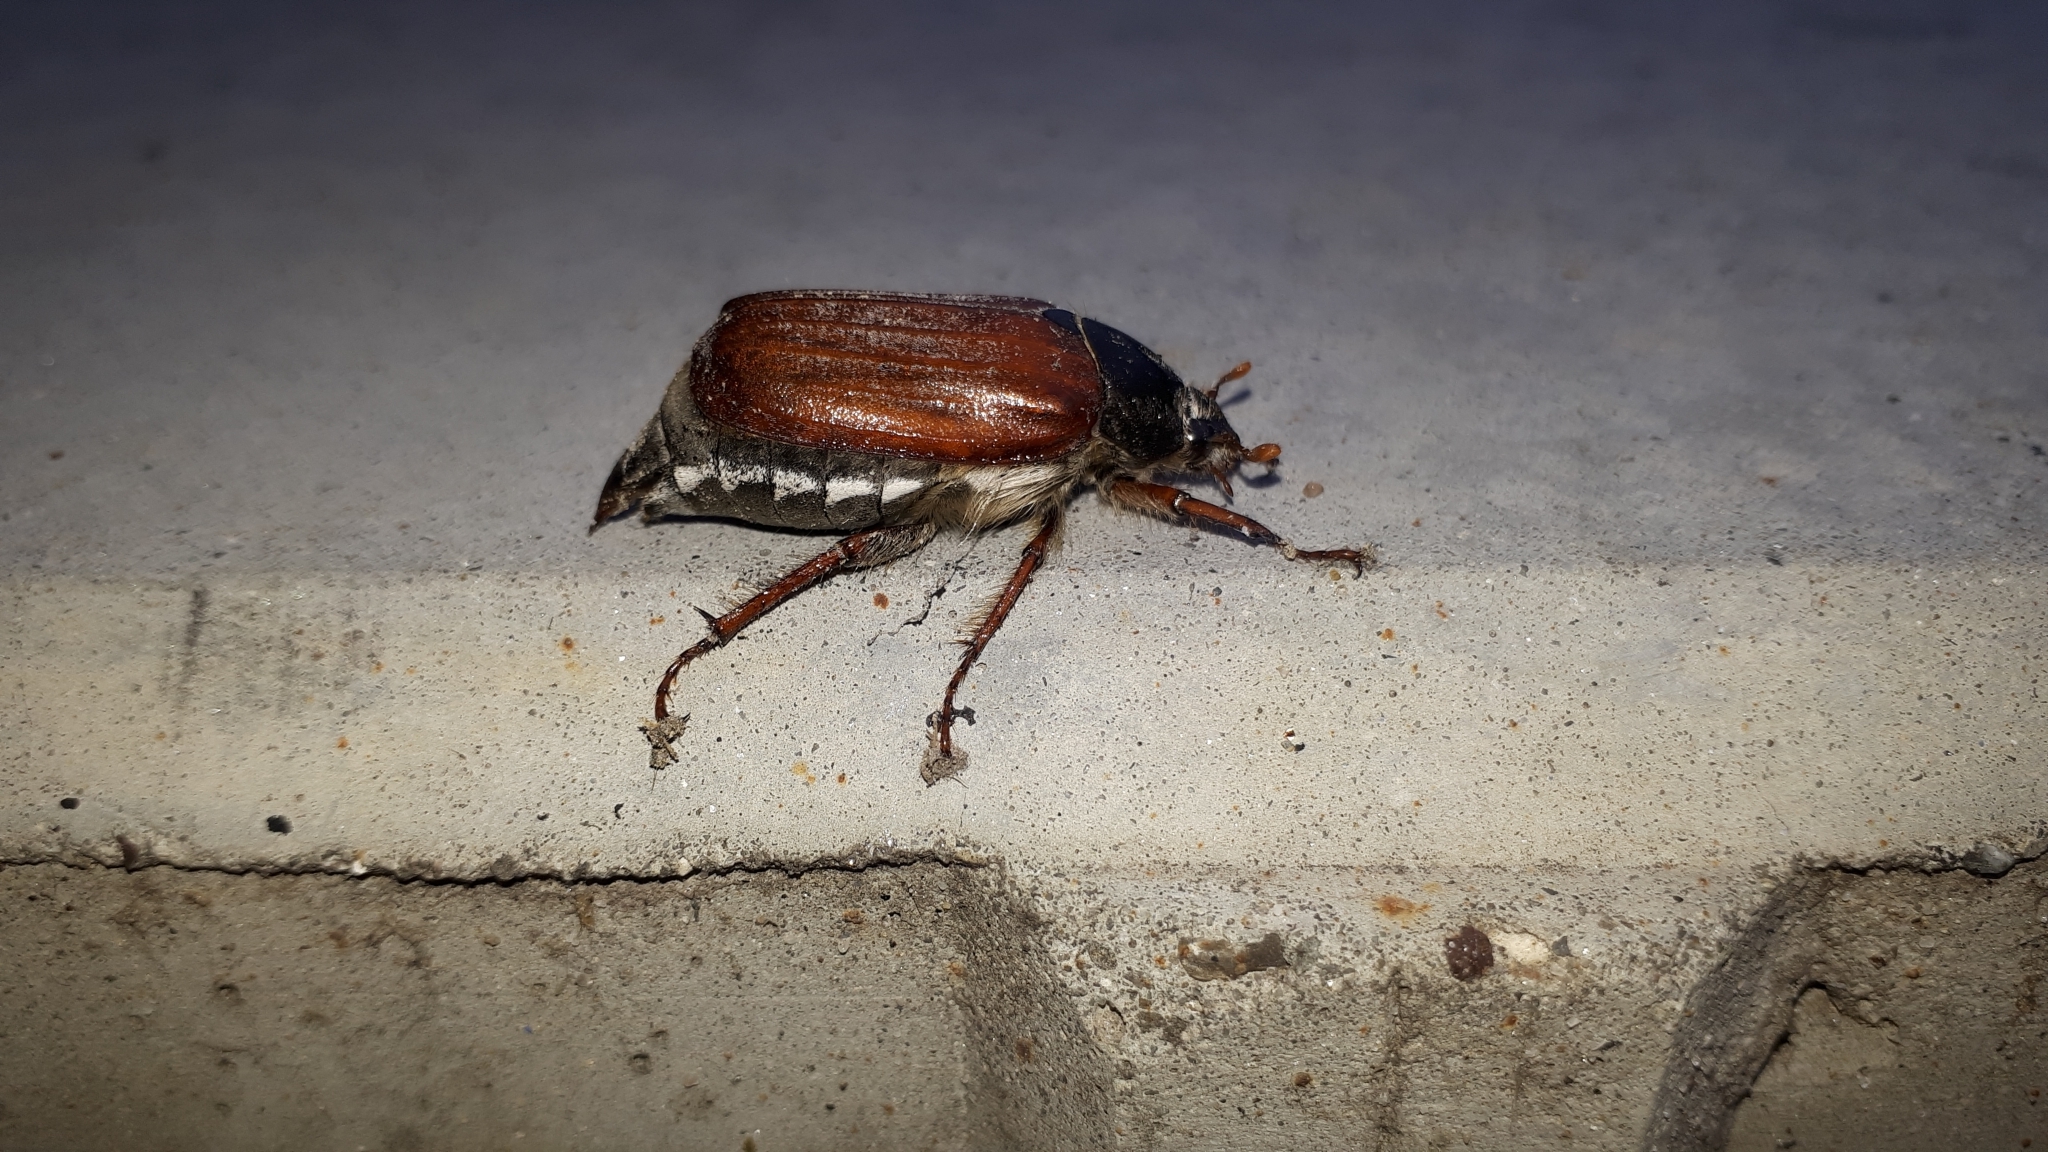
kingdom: Animalia
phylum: Arthropoda
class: Insecta
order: Coleoptera
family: Scarabaeidae
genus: Melolontha
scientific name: Melolontha melolontha
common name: Cockchafer maybeetle
